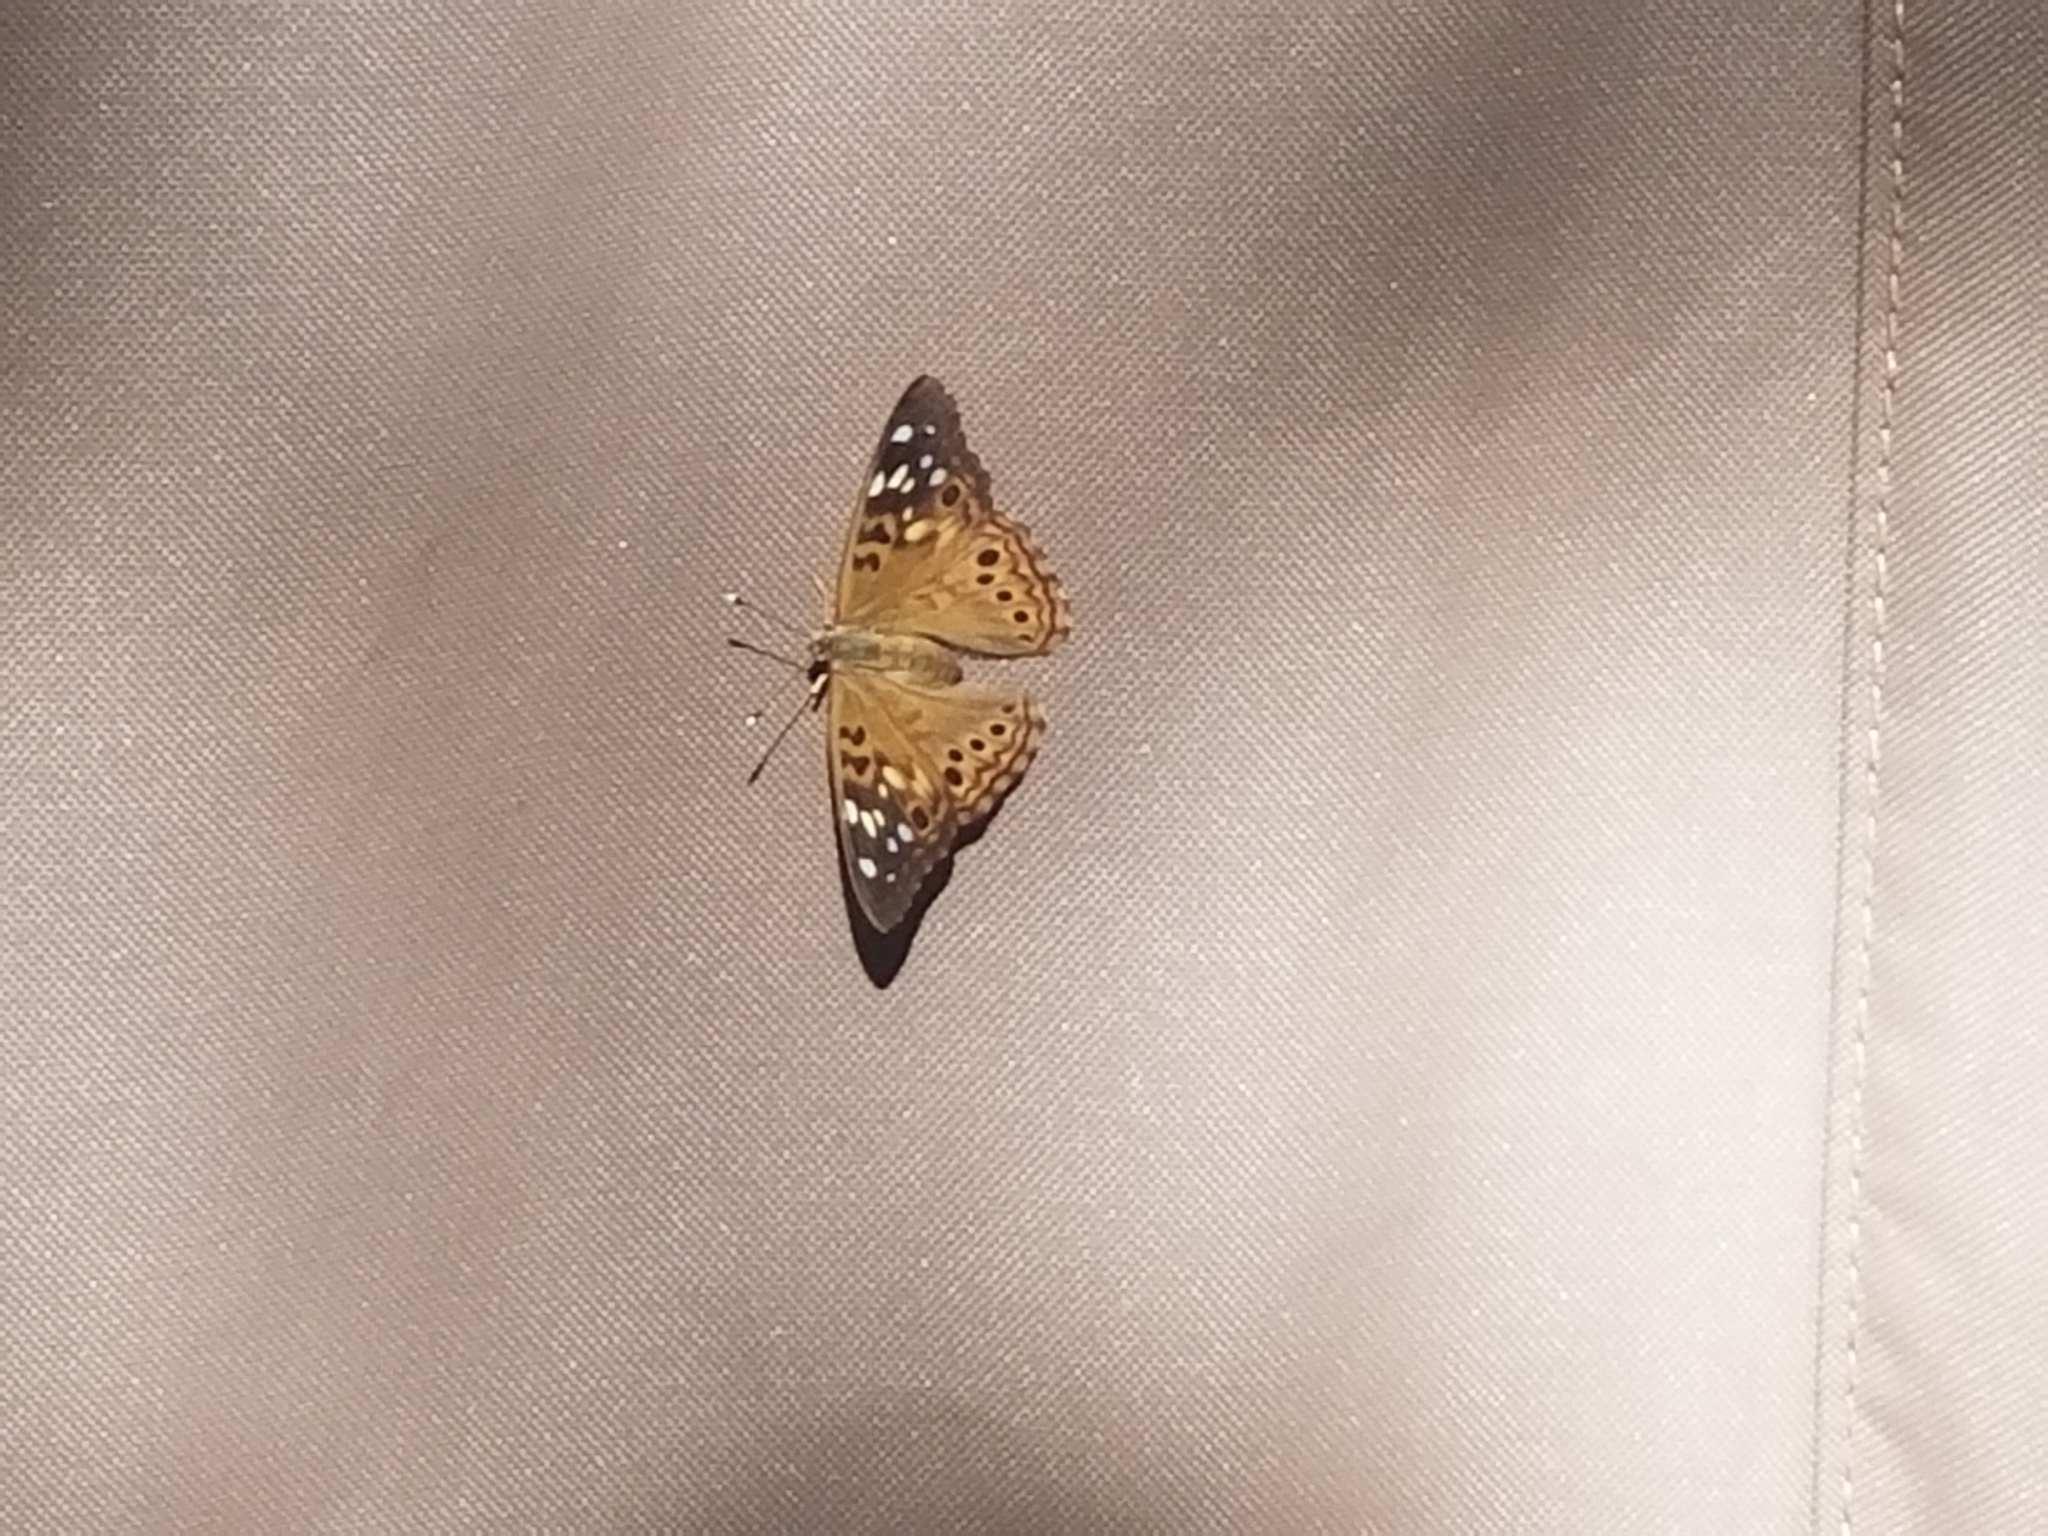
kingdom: Animalia
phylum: Arthropoda
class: Insecta
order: Lepidoptera
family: Nymphalidae
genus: Asterocampa
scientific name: Asterocampa celtis
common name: Hackberry emperor
